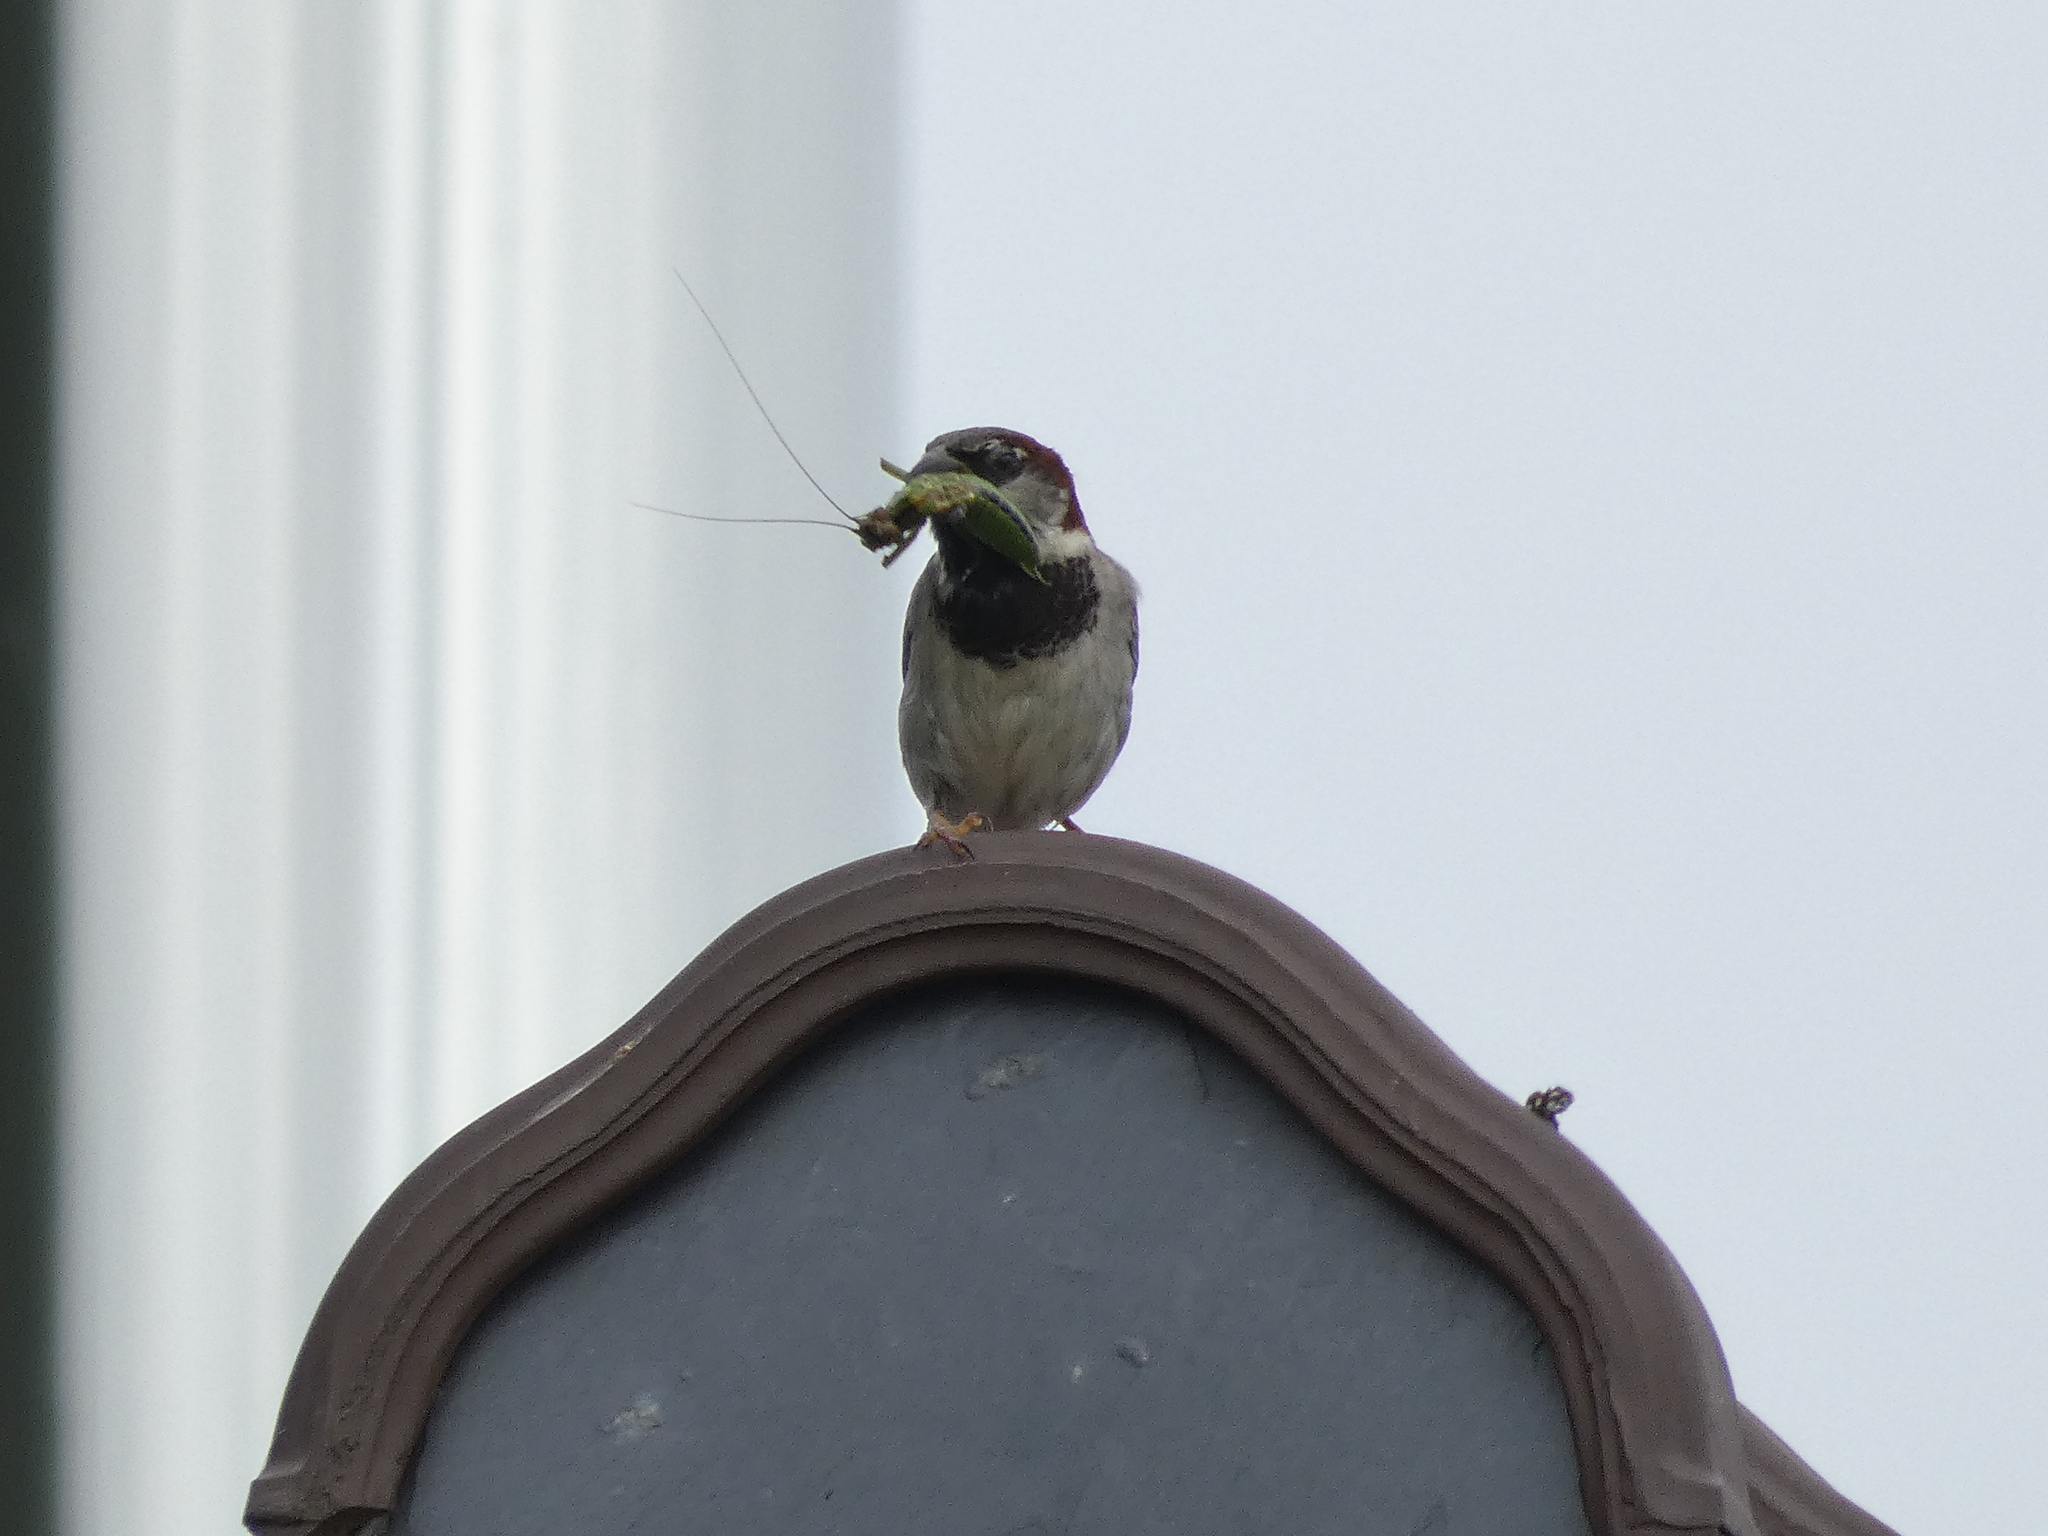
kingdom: Animalia
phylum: Chordata
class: Aves
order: Passeriformes
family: Passeridae
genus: Passer
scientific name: Passer domesticus
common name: House sparrow
